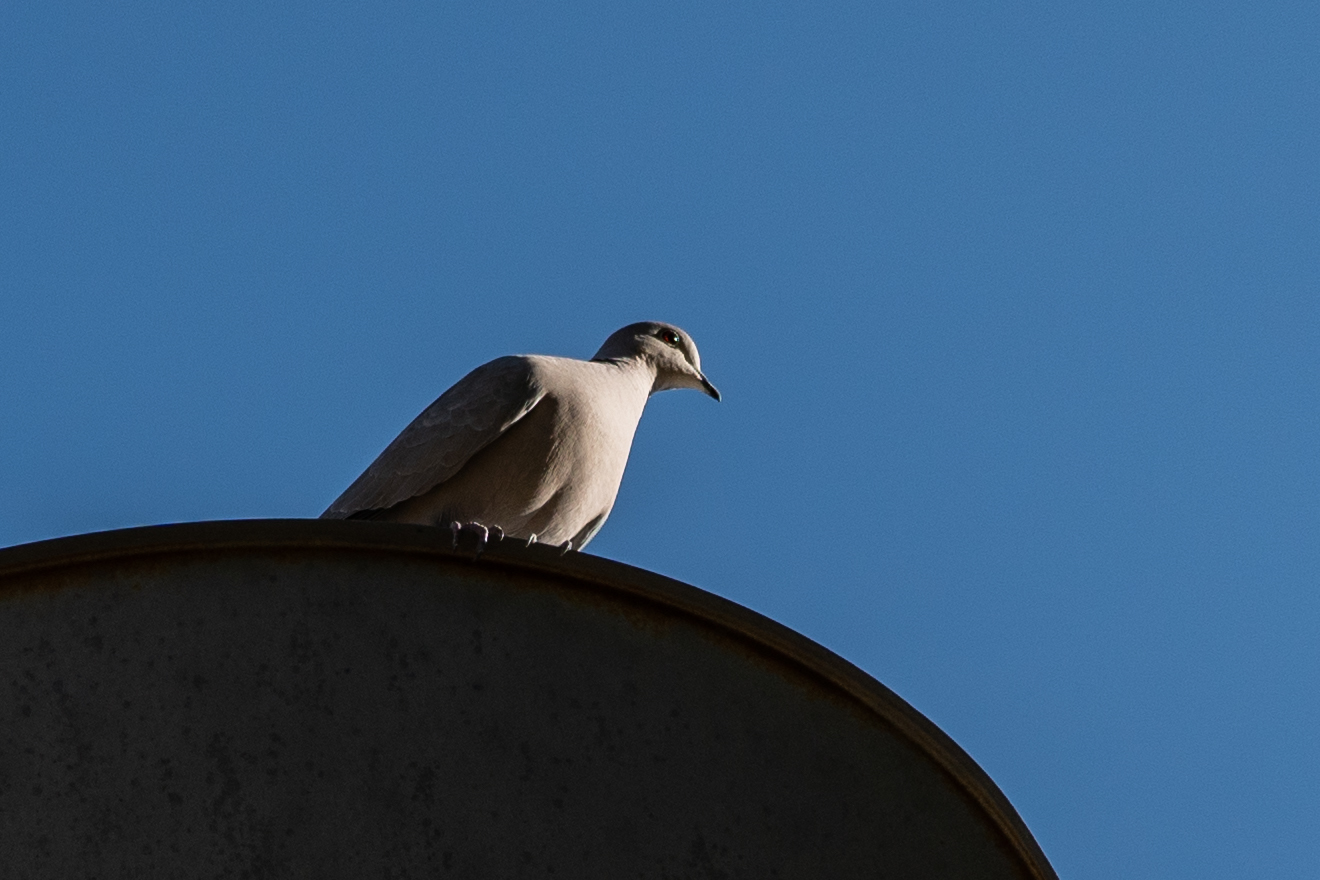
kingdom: Animalia
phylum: Chordata
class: Aves
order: Columbiformes
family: Columbidae
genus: Streptopelia
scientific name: Streptopelia decaocto
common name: Eurasian collared dove
